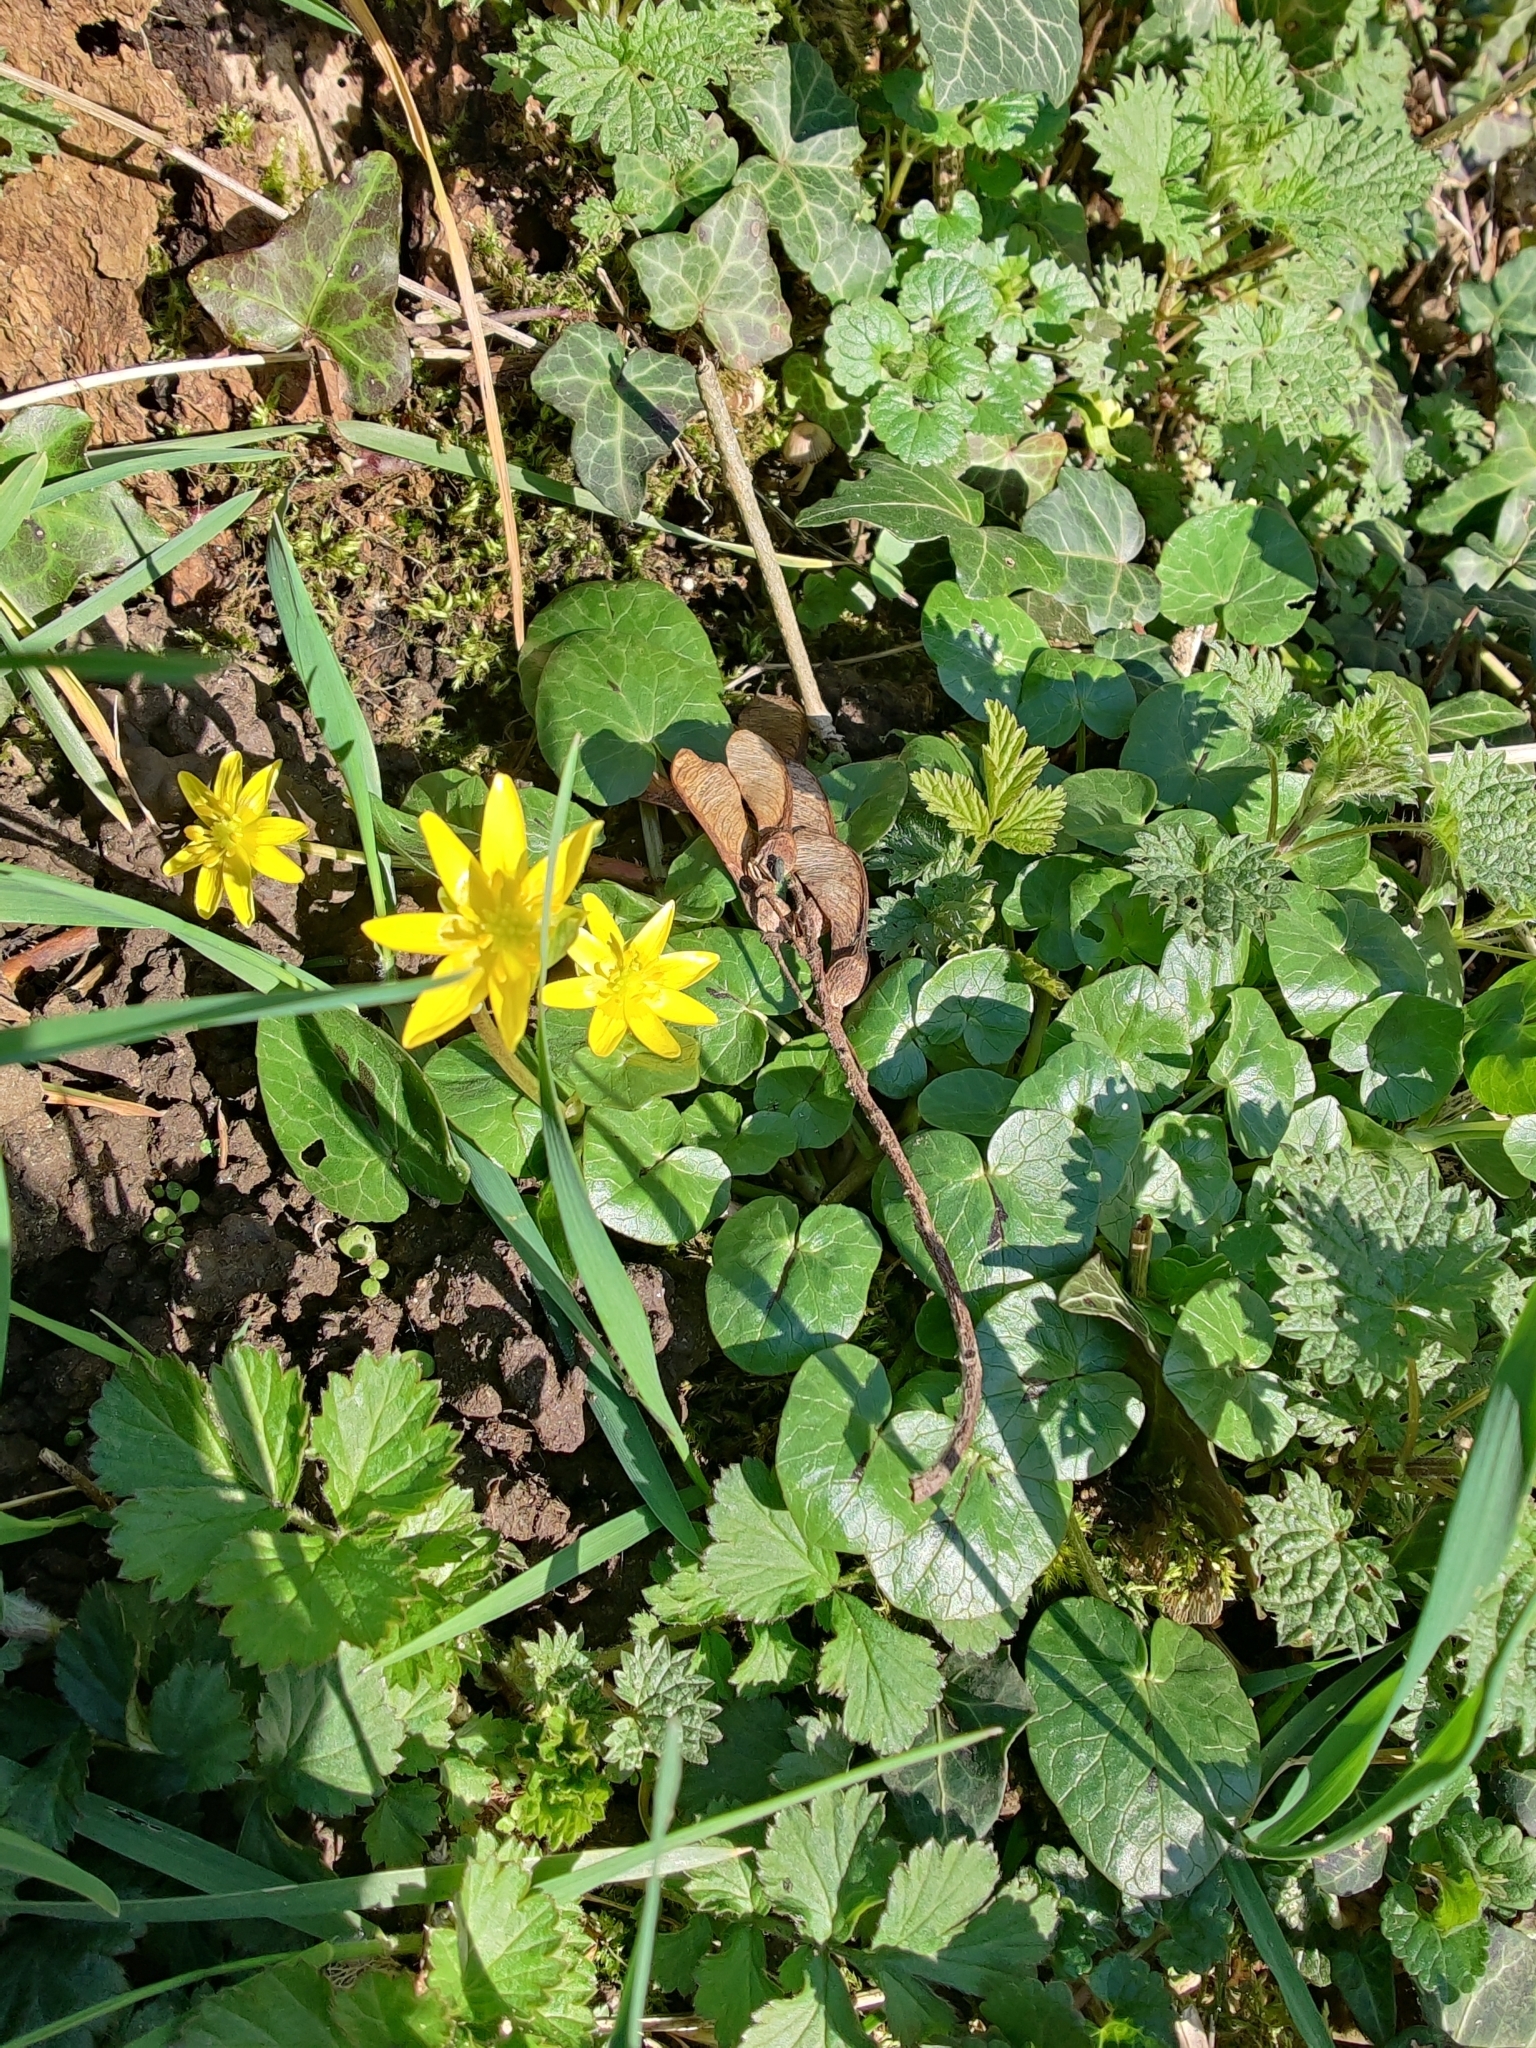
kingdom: Plantae
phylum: Tracheophyta
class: Magnoliopsida
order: Ranunculales
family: Ranunculaceae
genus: Ficaria
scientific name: Ficaria verna
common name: Lesser celandine
